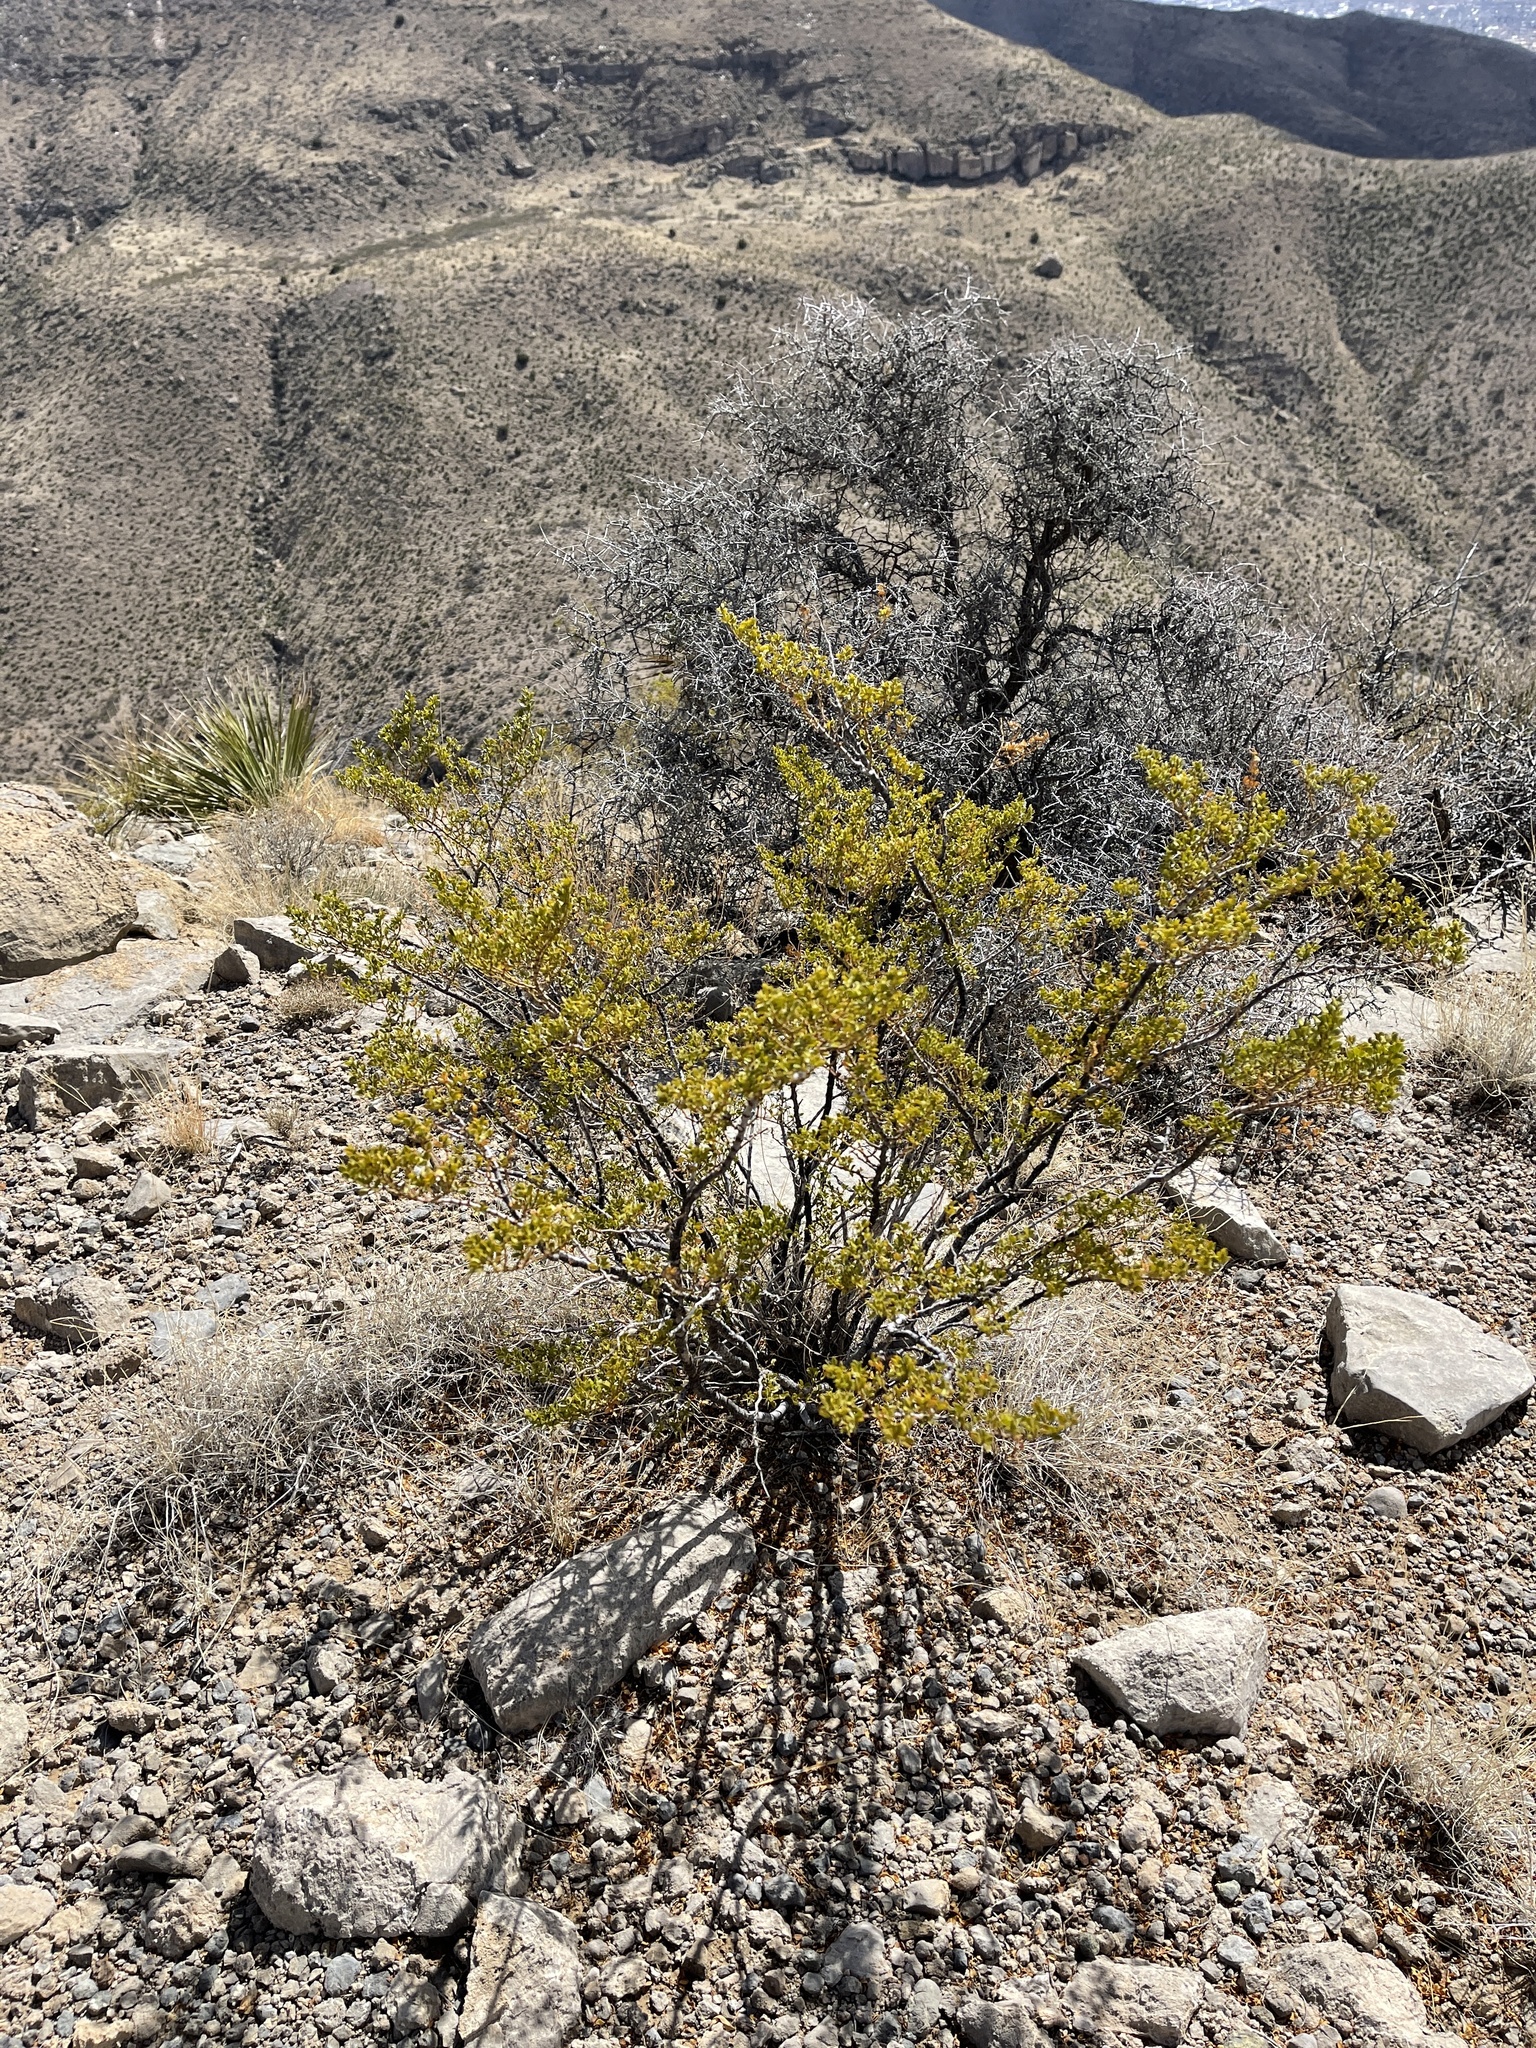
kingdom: Plantae
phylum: Tracheophyta
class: Magnoliopsida
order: Zygophyllales
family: Zygophyllaceae
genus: Larrea
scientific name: Larrea tridentata
